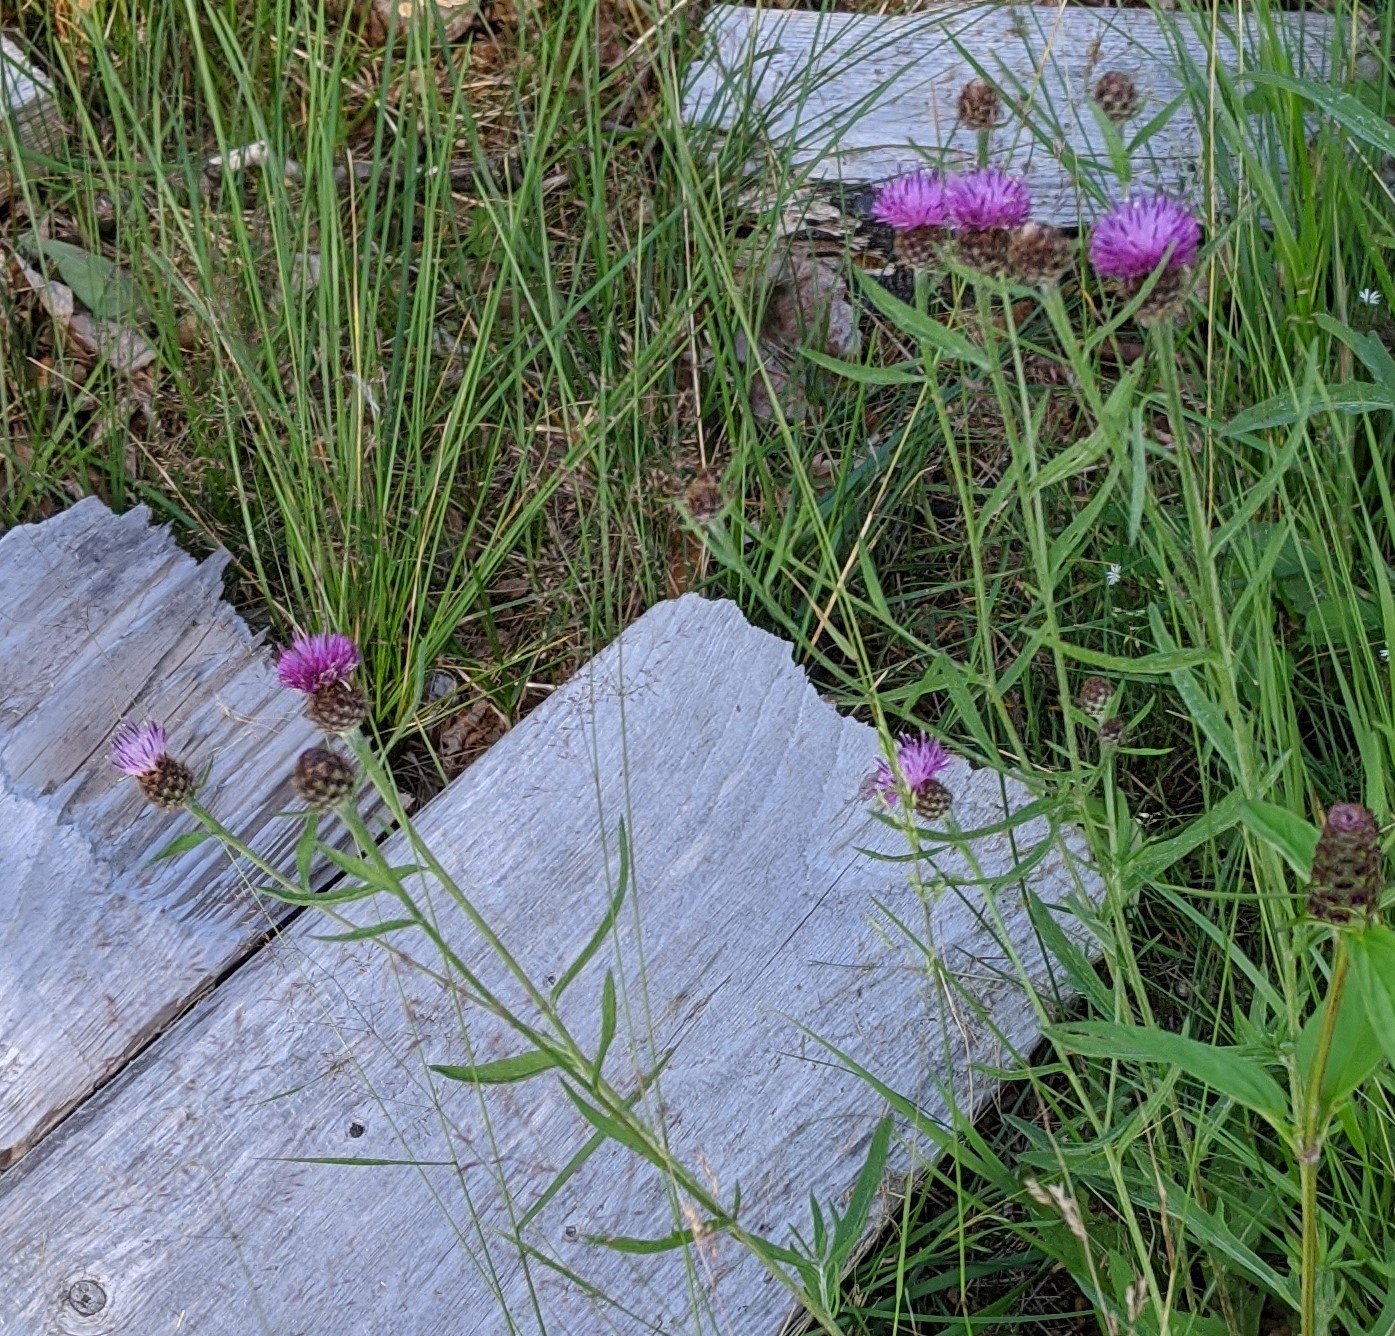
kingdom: Plantae
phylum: Tracheophyta
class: Magnoliopsida
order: Asterales
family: Asteraceae
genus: Centaurea
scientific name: Centaurea nigra
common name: Lesser knapweed
